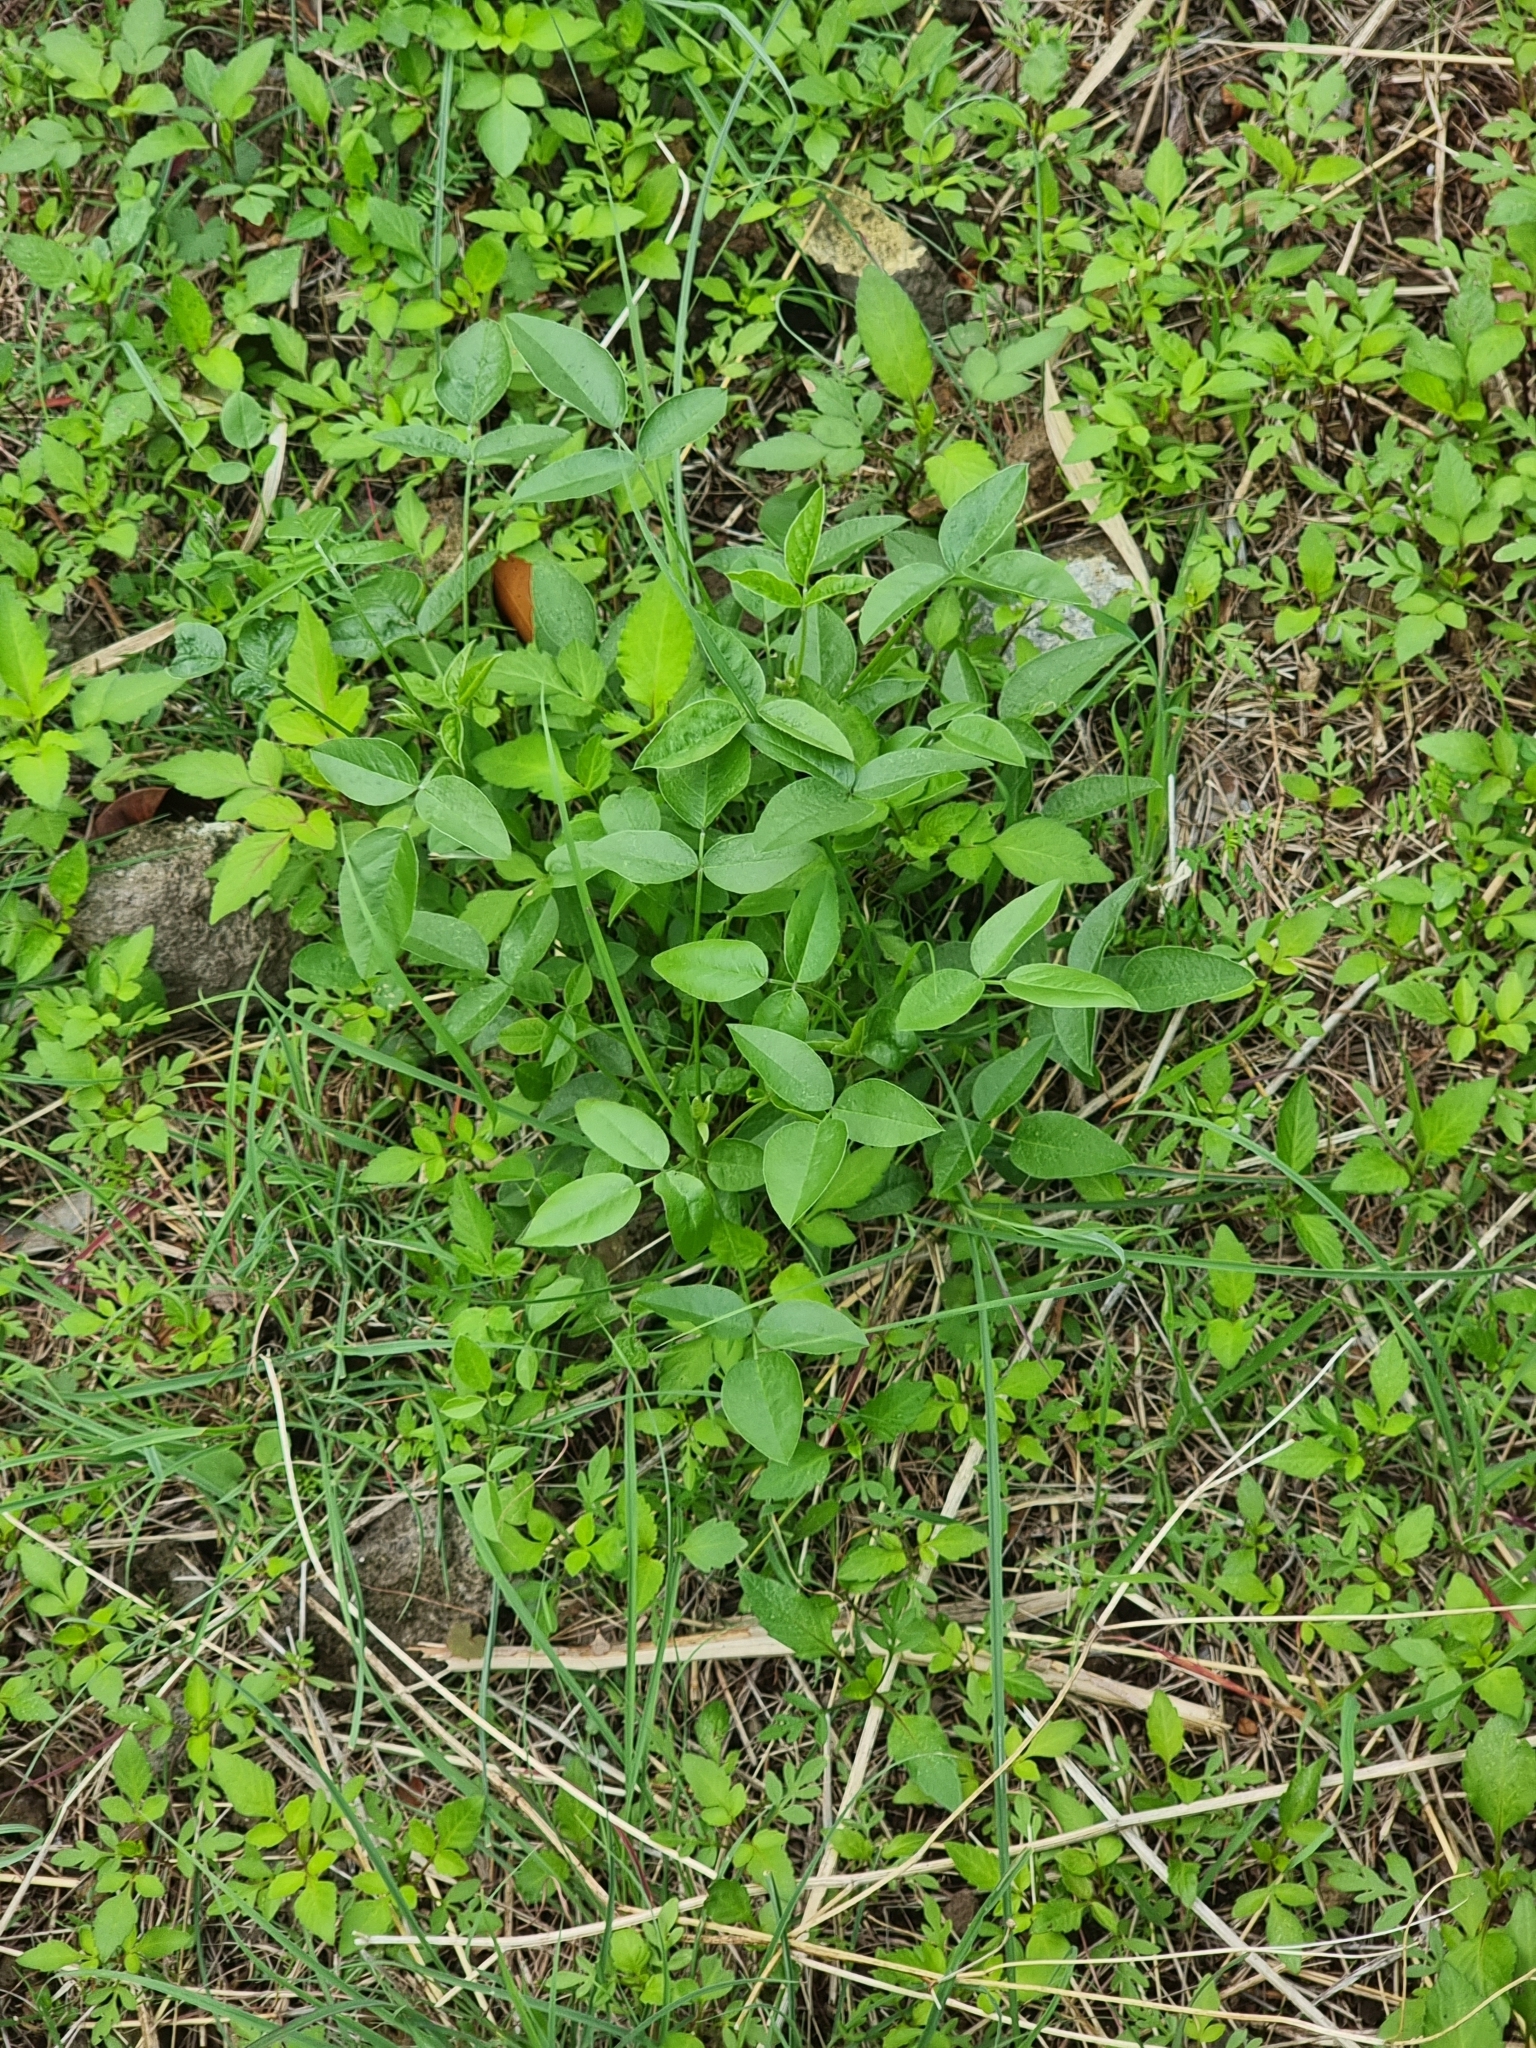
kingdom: Plantae
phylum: Tracheophyta
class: Magnoliopsida
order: Fabales
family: Fabaceae
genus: Bituminaria
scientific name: Bituminaria bituminosa
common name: Arabian pea
